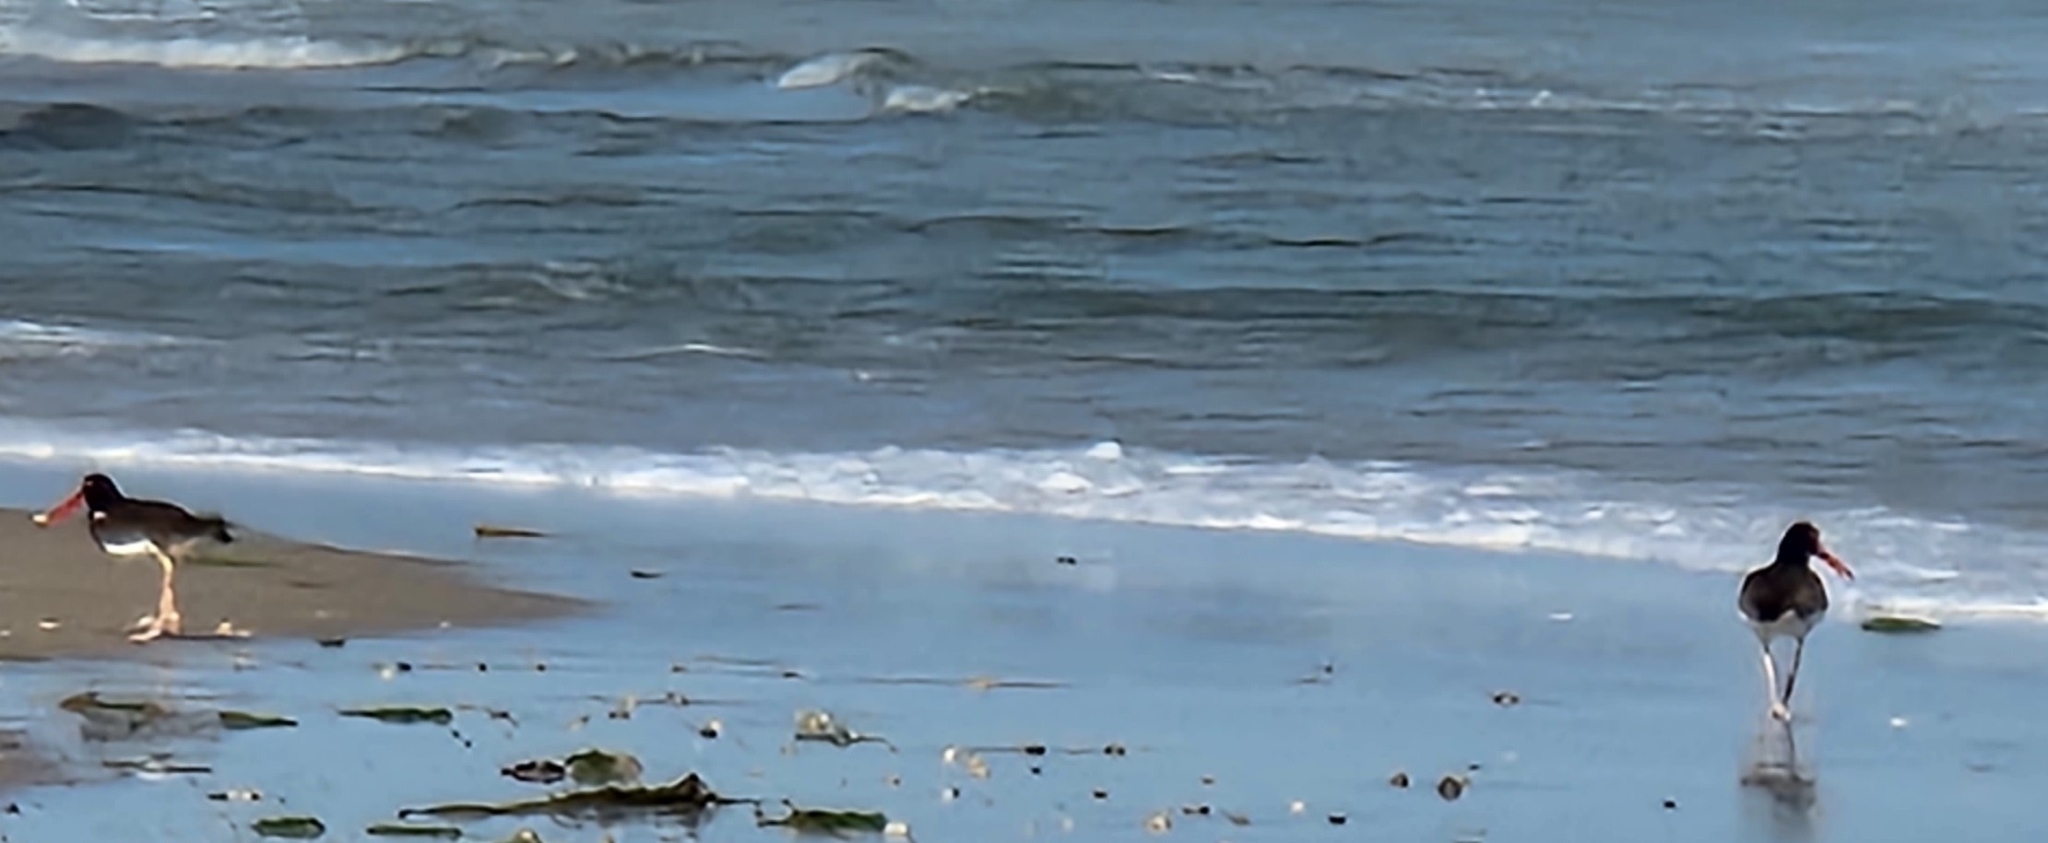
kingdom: Animalia
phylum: Chordata
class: Aves
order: Charadriiformes
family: Haematopodidae
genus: Haematopus
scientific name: Haematopus palliatus
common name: American oystercatcher
